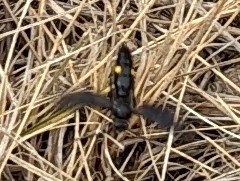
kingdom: Animalia
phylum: Arthropoda
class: Insecta
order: Hymenoptera
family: Scoliidae
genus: Australelis
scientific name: Australelis
